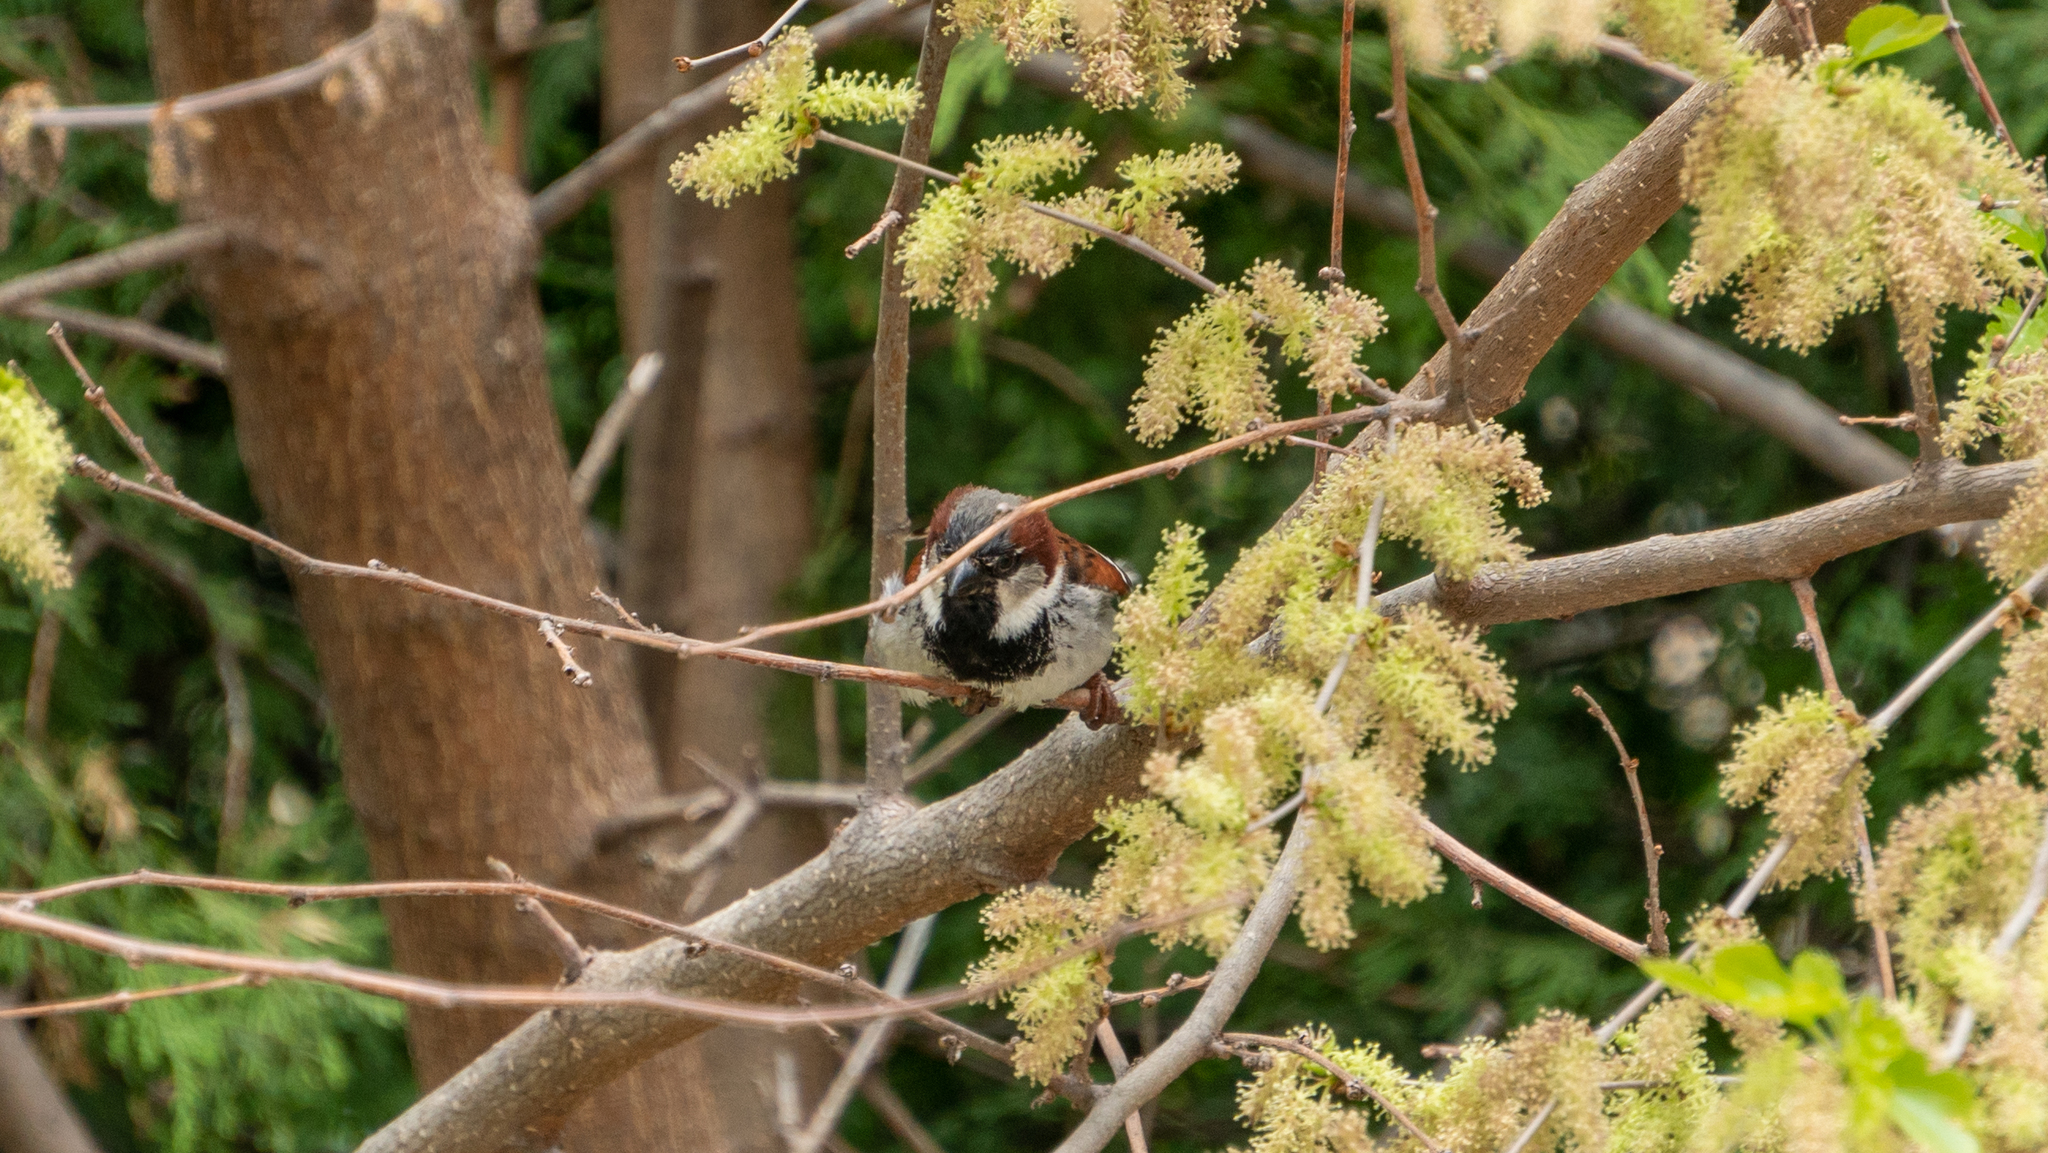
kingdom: Animalia
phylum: Chordata
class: Aves
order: Passeriformes
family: Passeridae
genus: Passer
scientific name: Passer domesticus
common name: House sparrow
